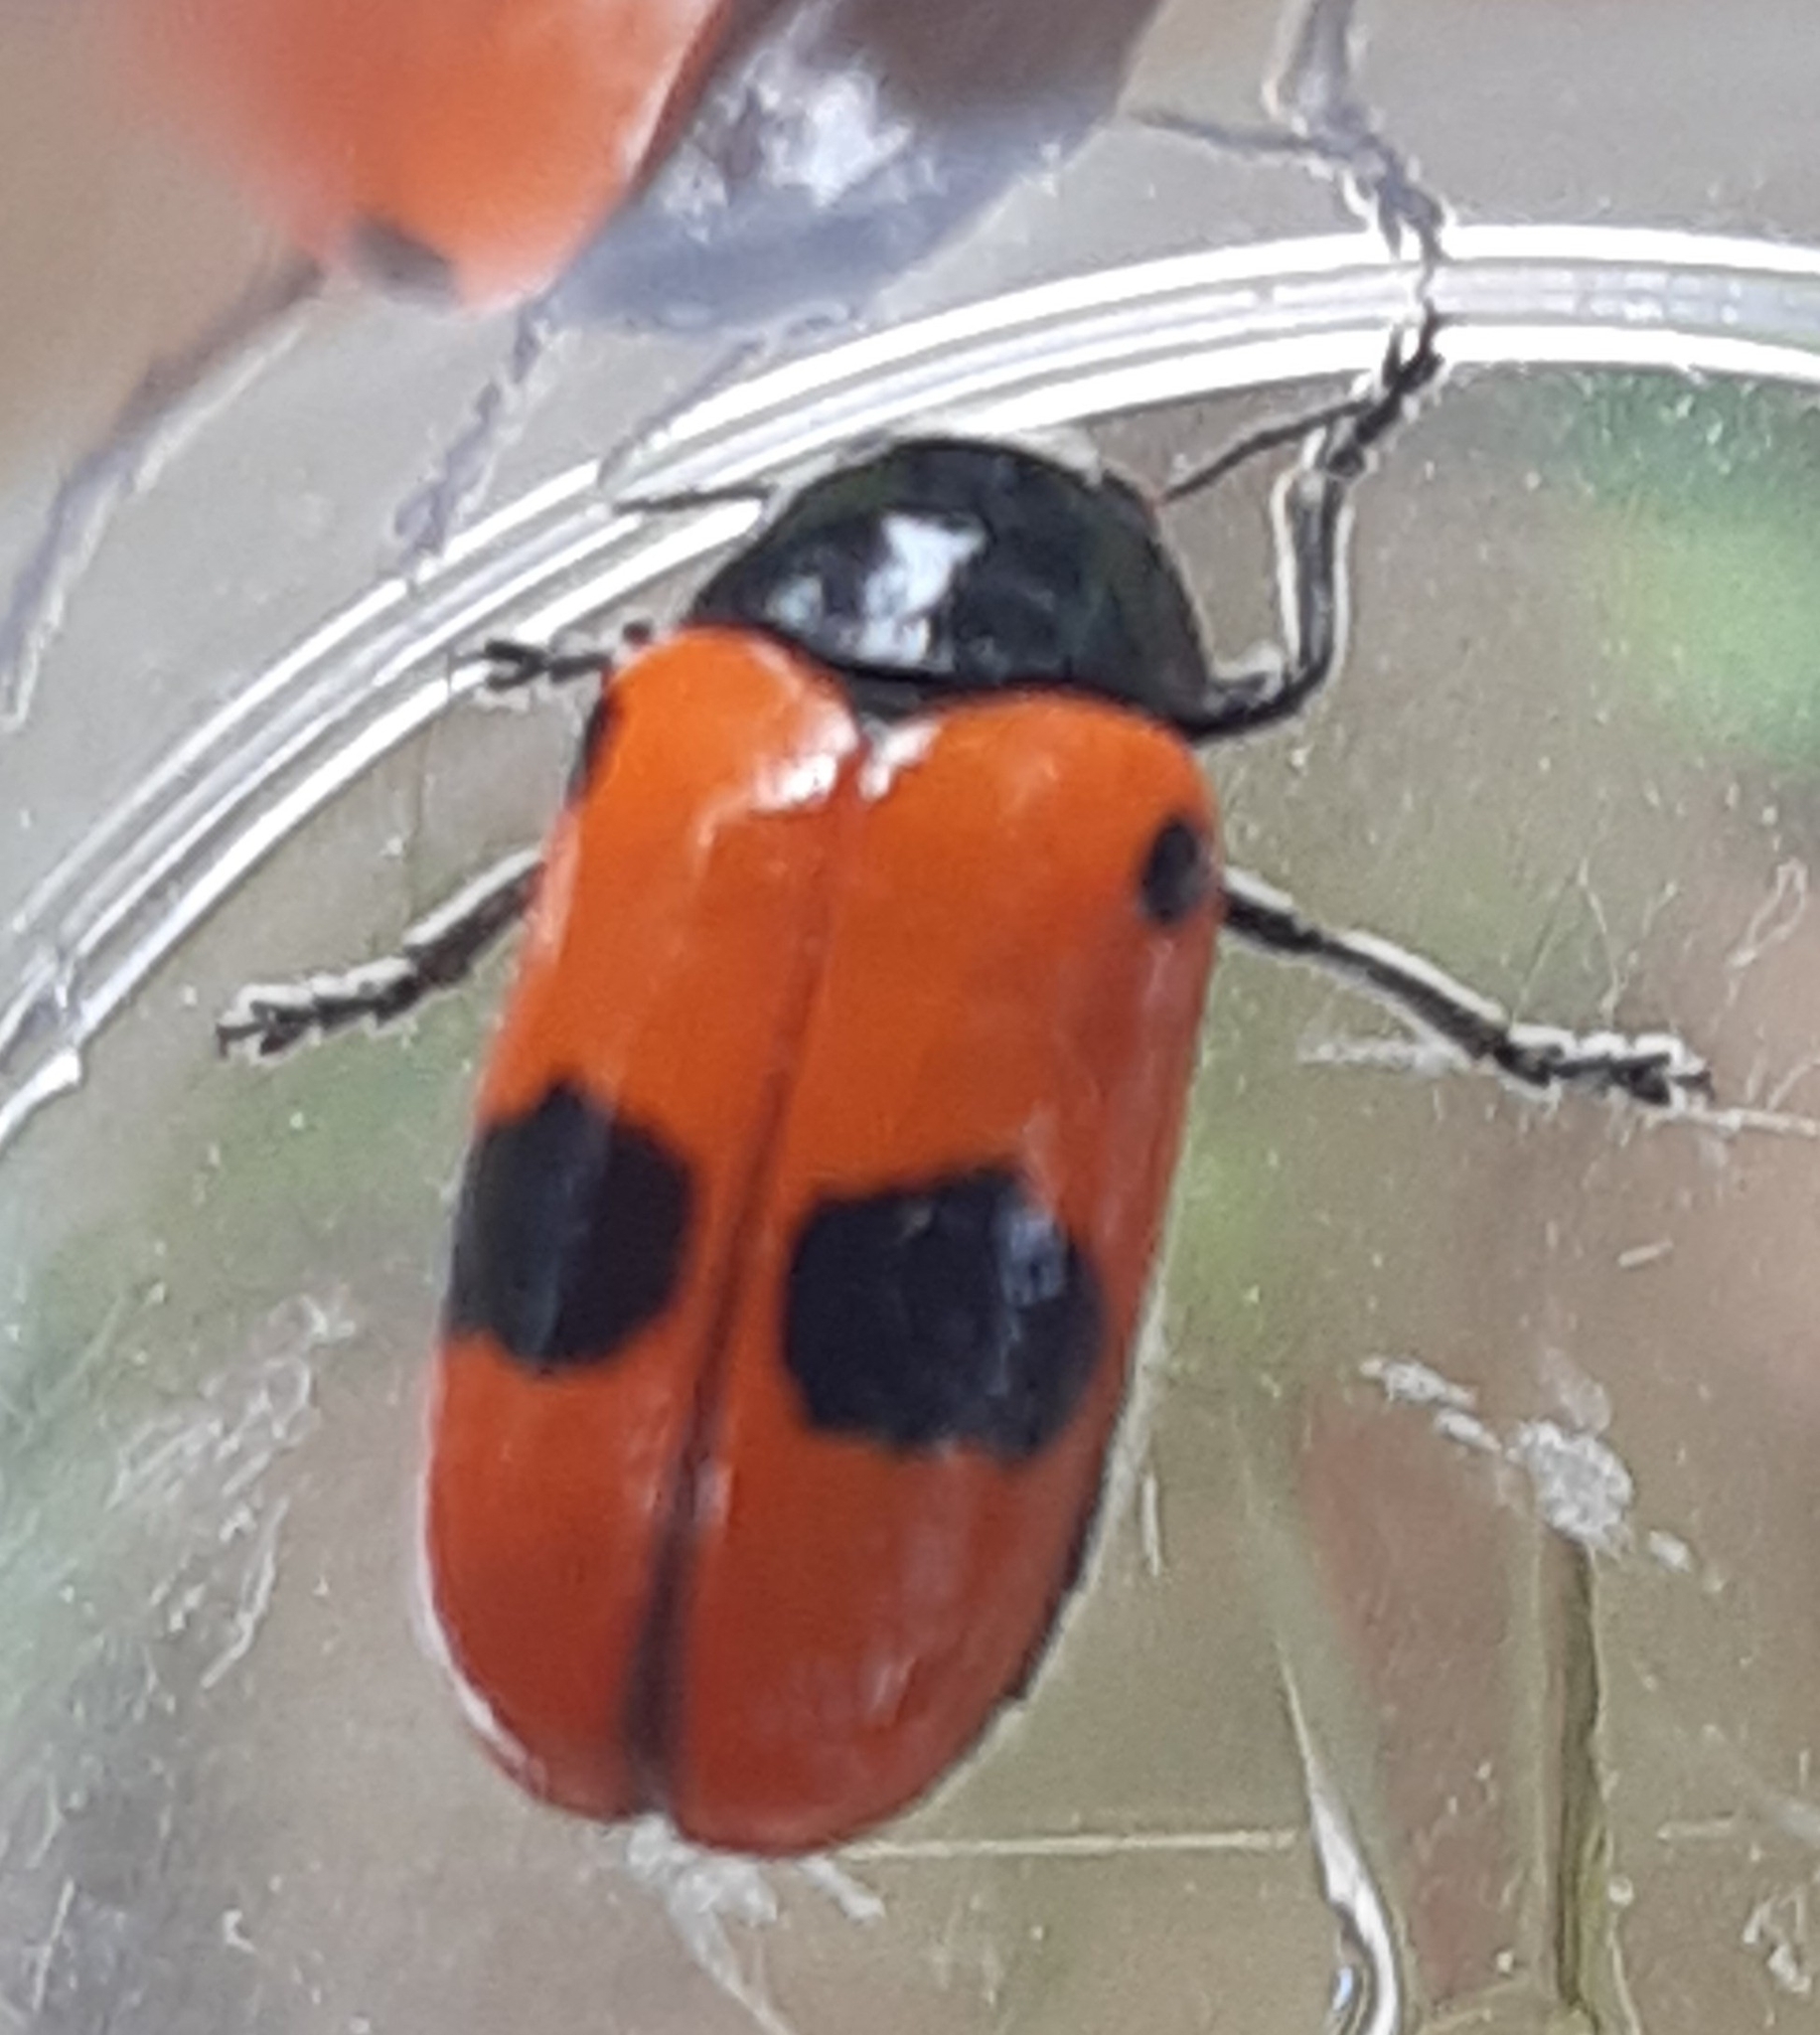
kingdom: Animalia
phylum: Arthropoda
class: Insecta
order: Coleoptera
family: Chrysomelidae
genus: Clytra
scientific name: Clytra laeviuscula
